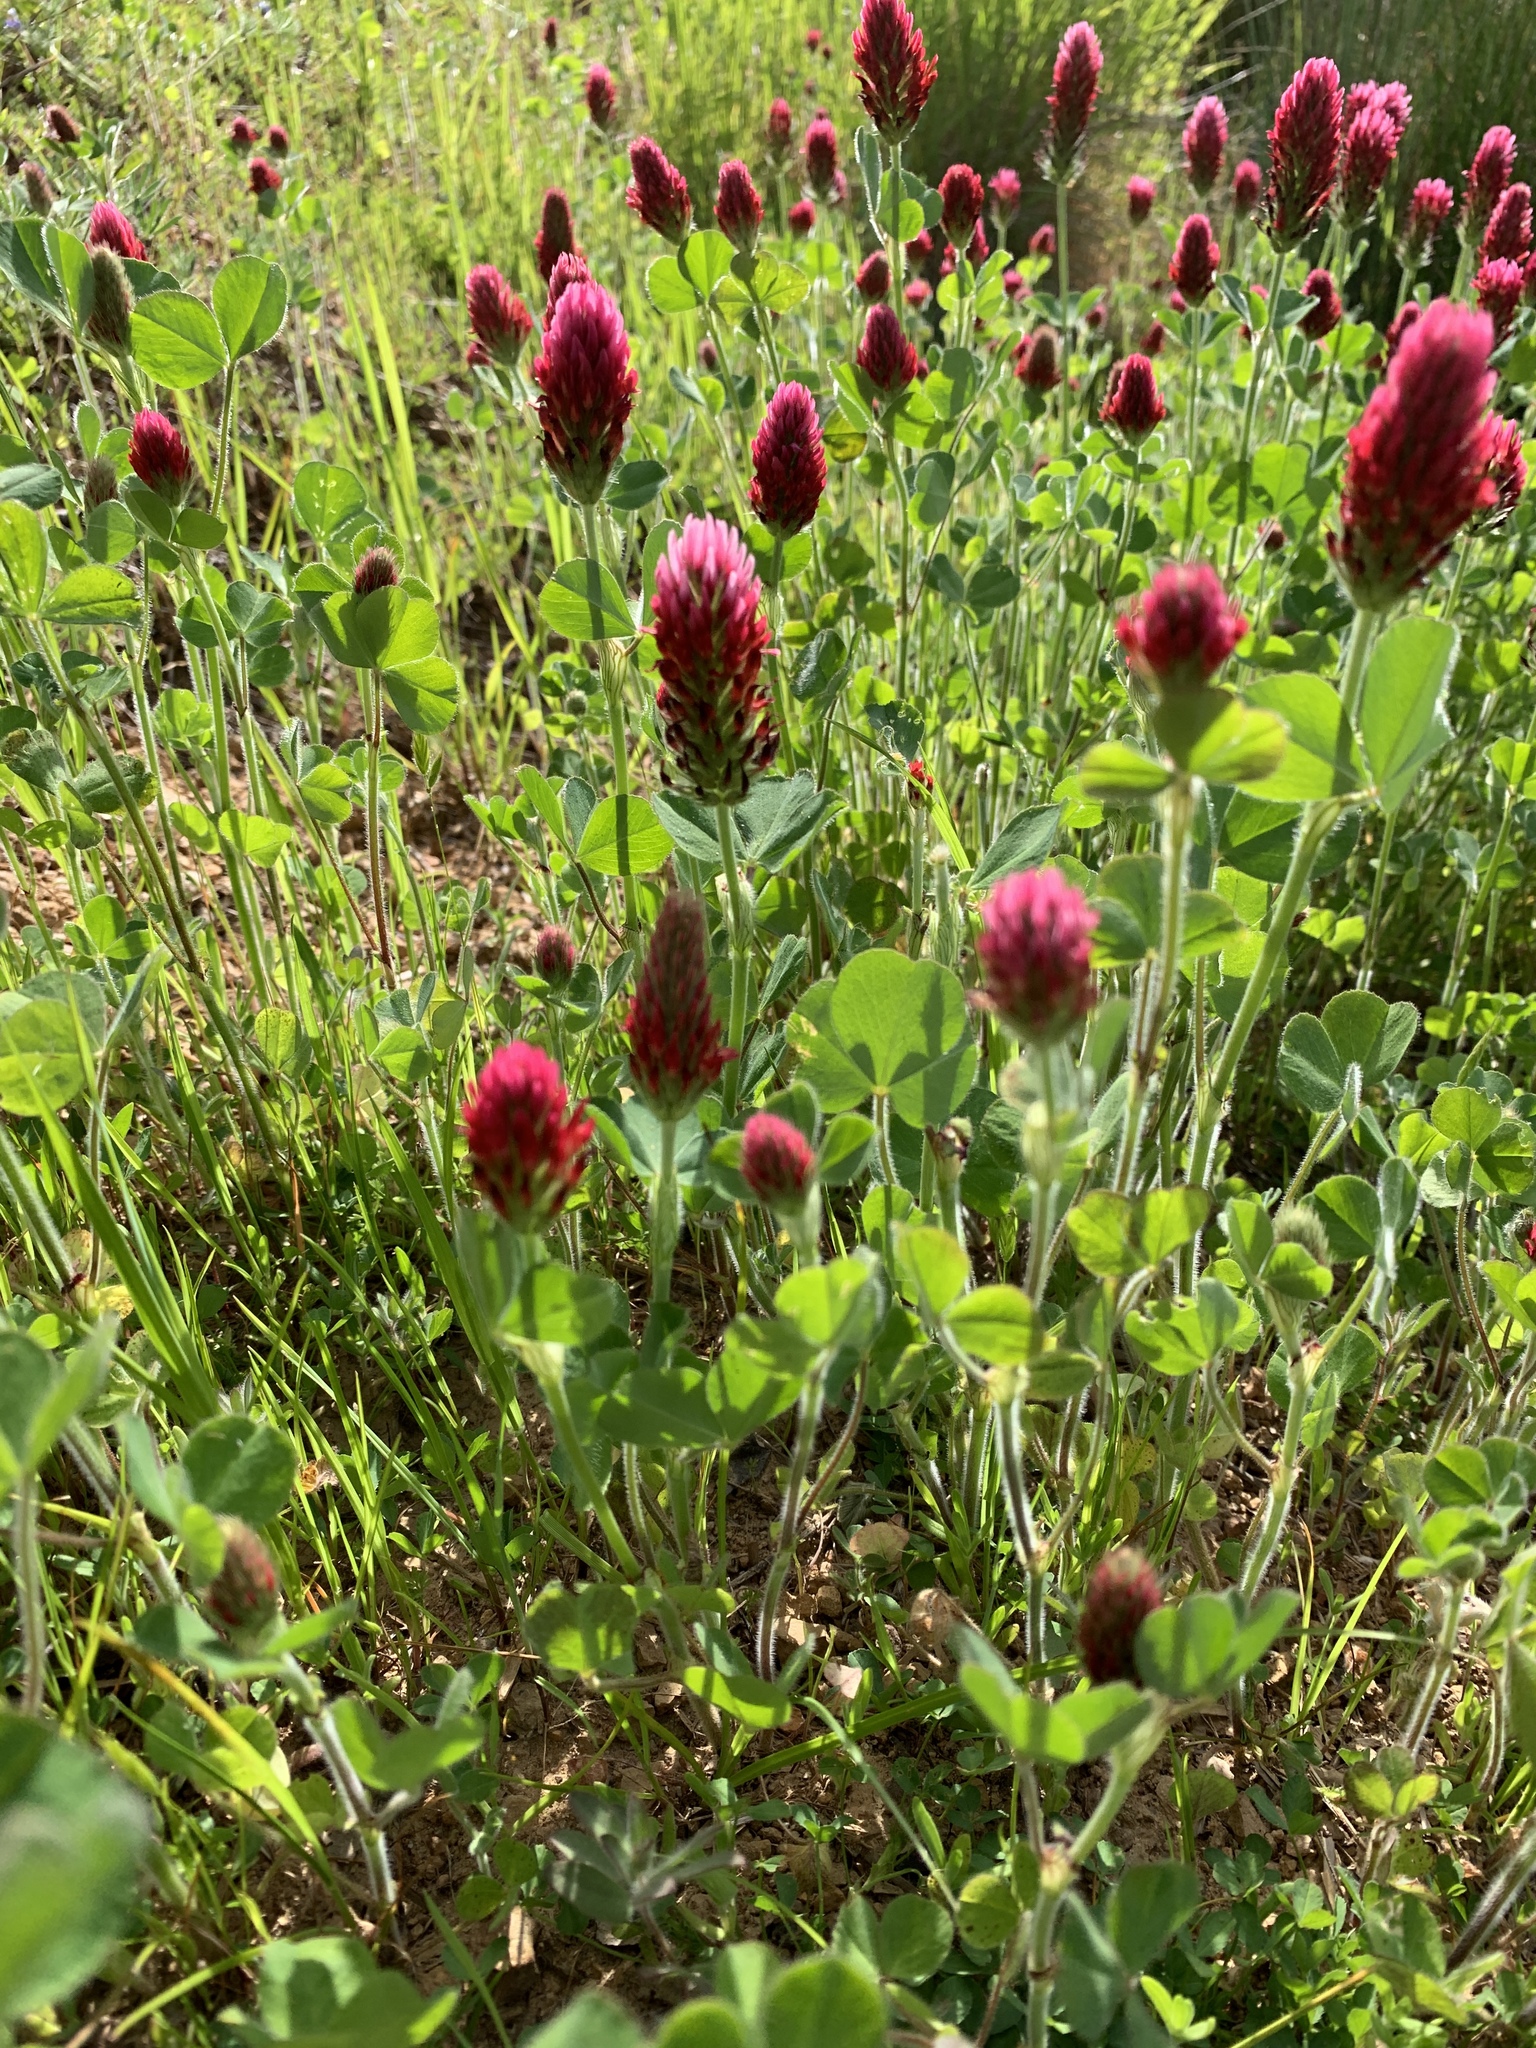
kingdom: Plantae
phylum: Tracheophyta
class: Magnoliopsida
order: Fabales
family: Fabaceae
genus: Trifolium
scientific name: Trifolium incarnatum
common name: Crimson clover
